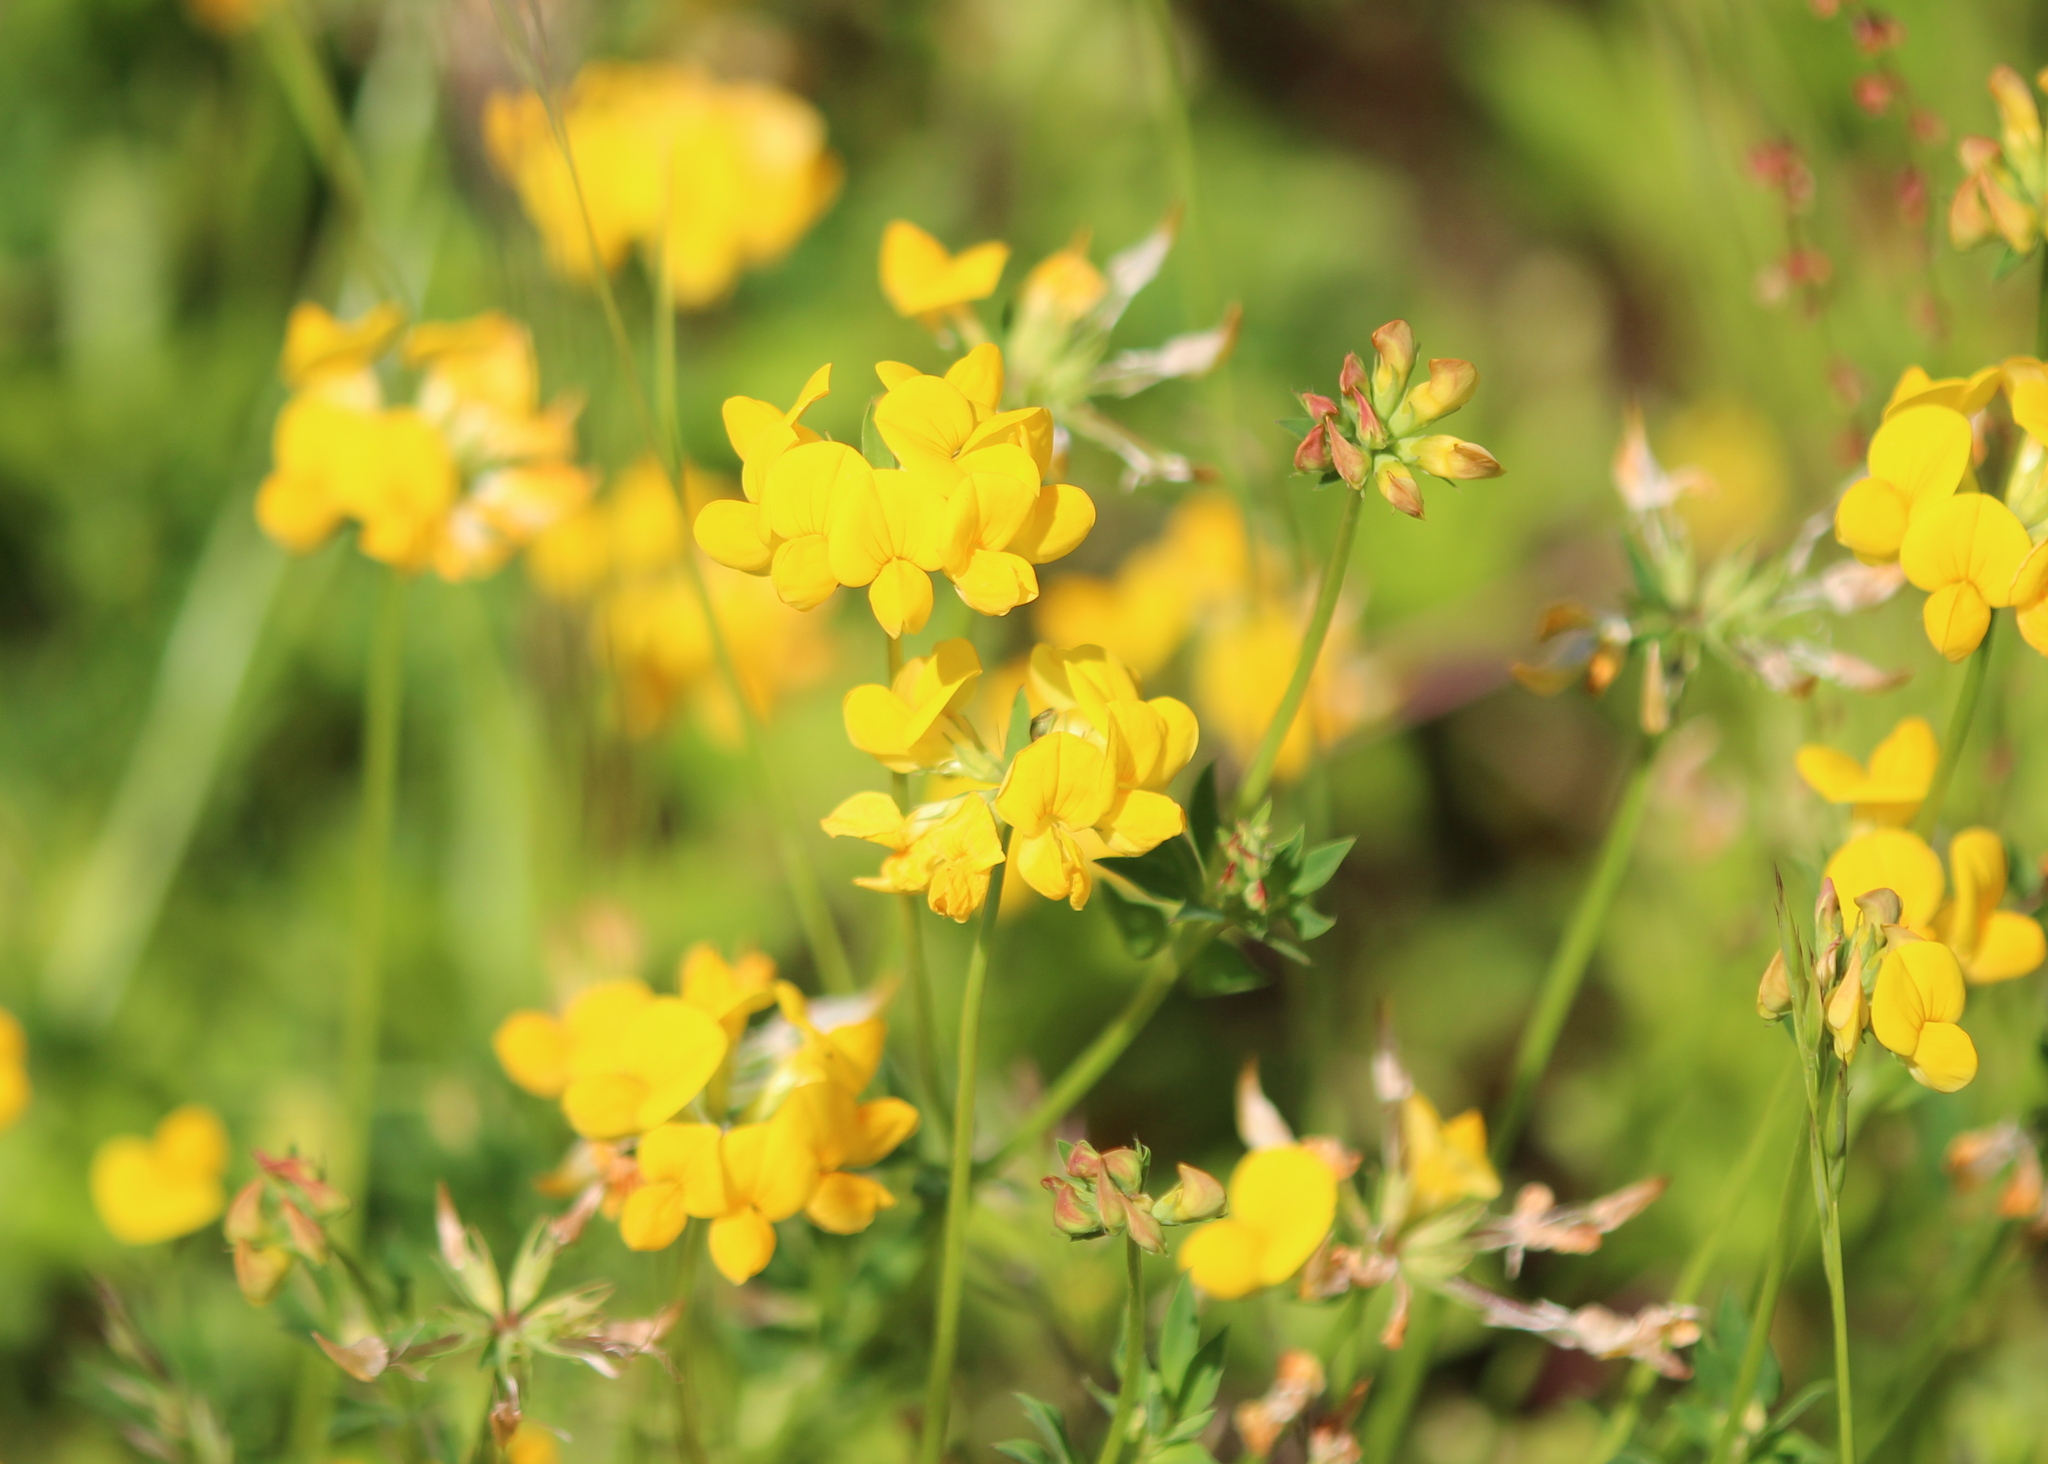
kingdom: Plantae
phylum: Tracheophyta
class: Magnoliopsida
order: Fabales
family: Fabaceae
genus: Lotus
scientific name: Lotus corniculatus
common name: Common bird's-foot-trefoil
